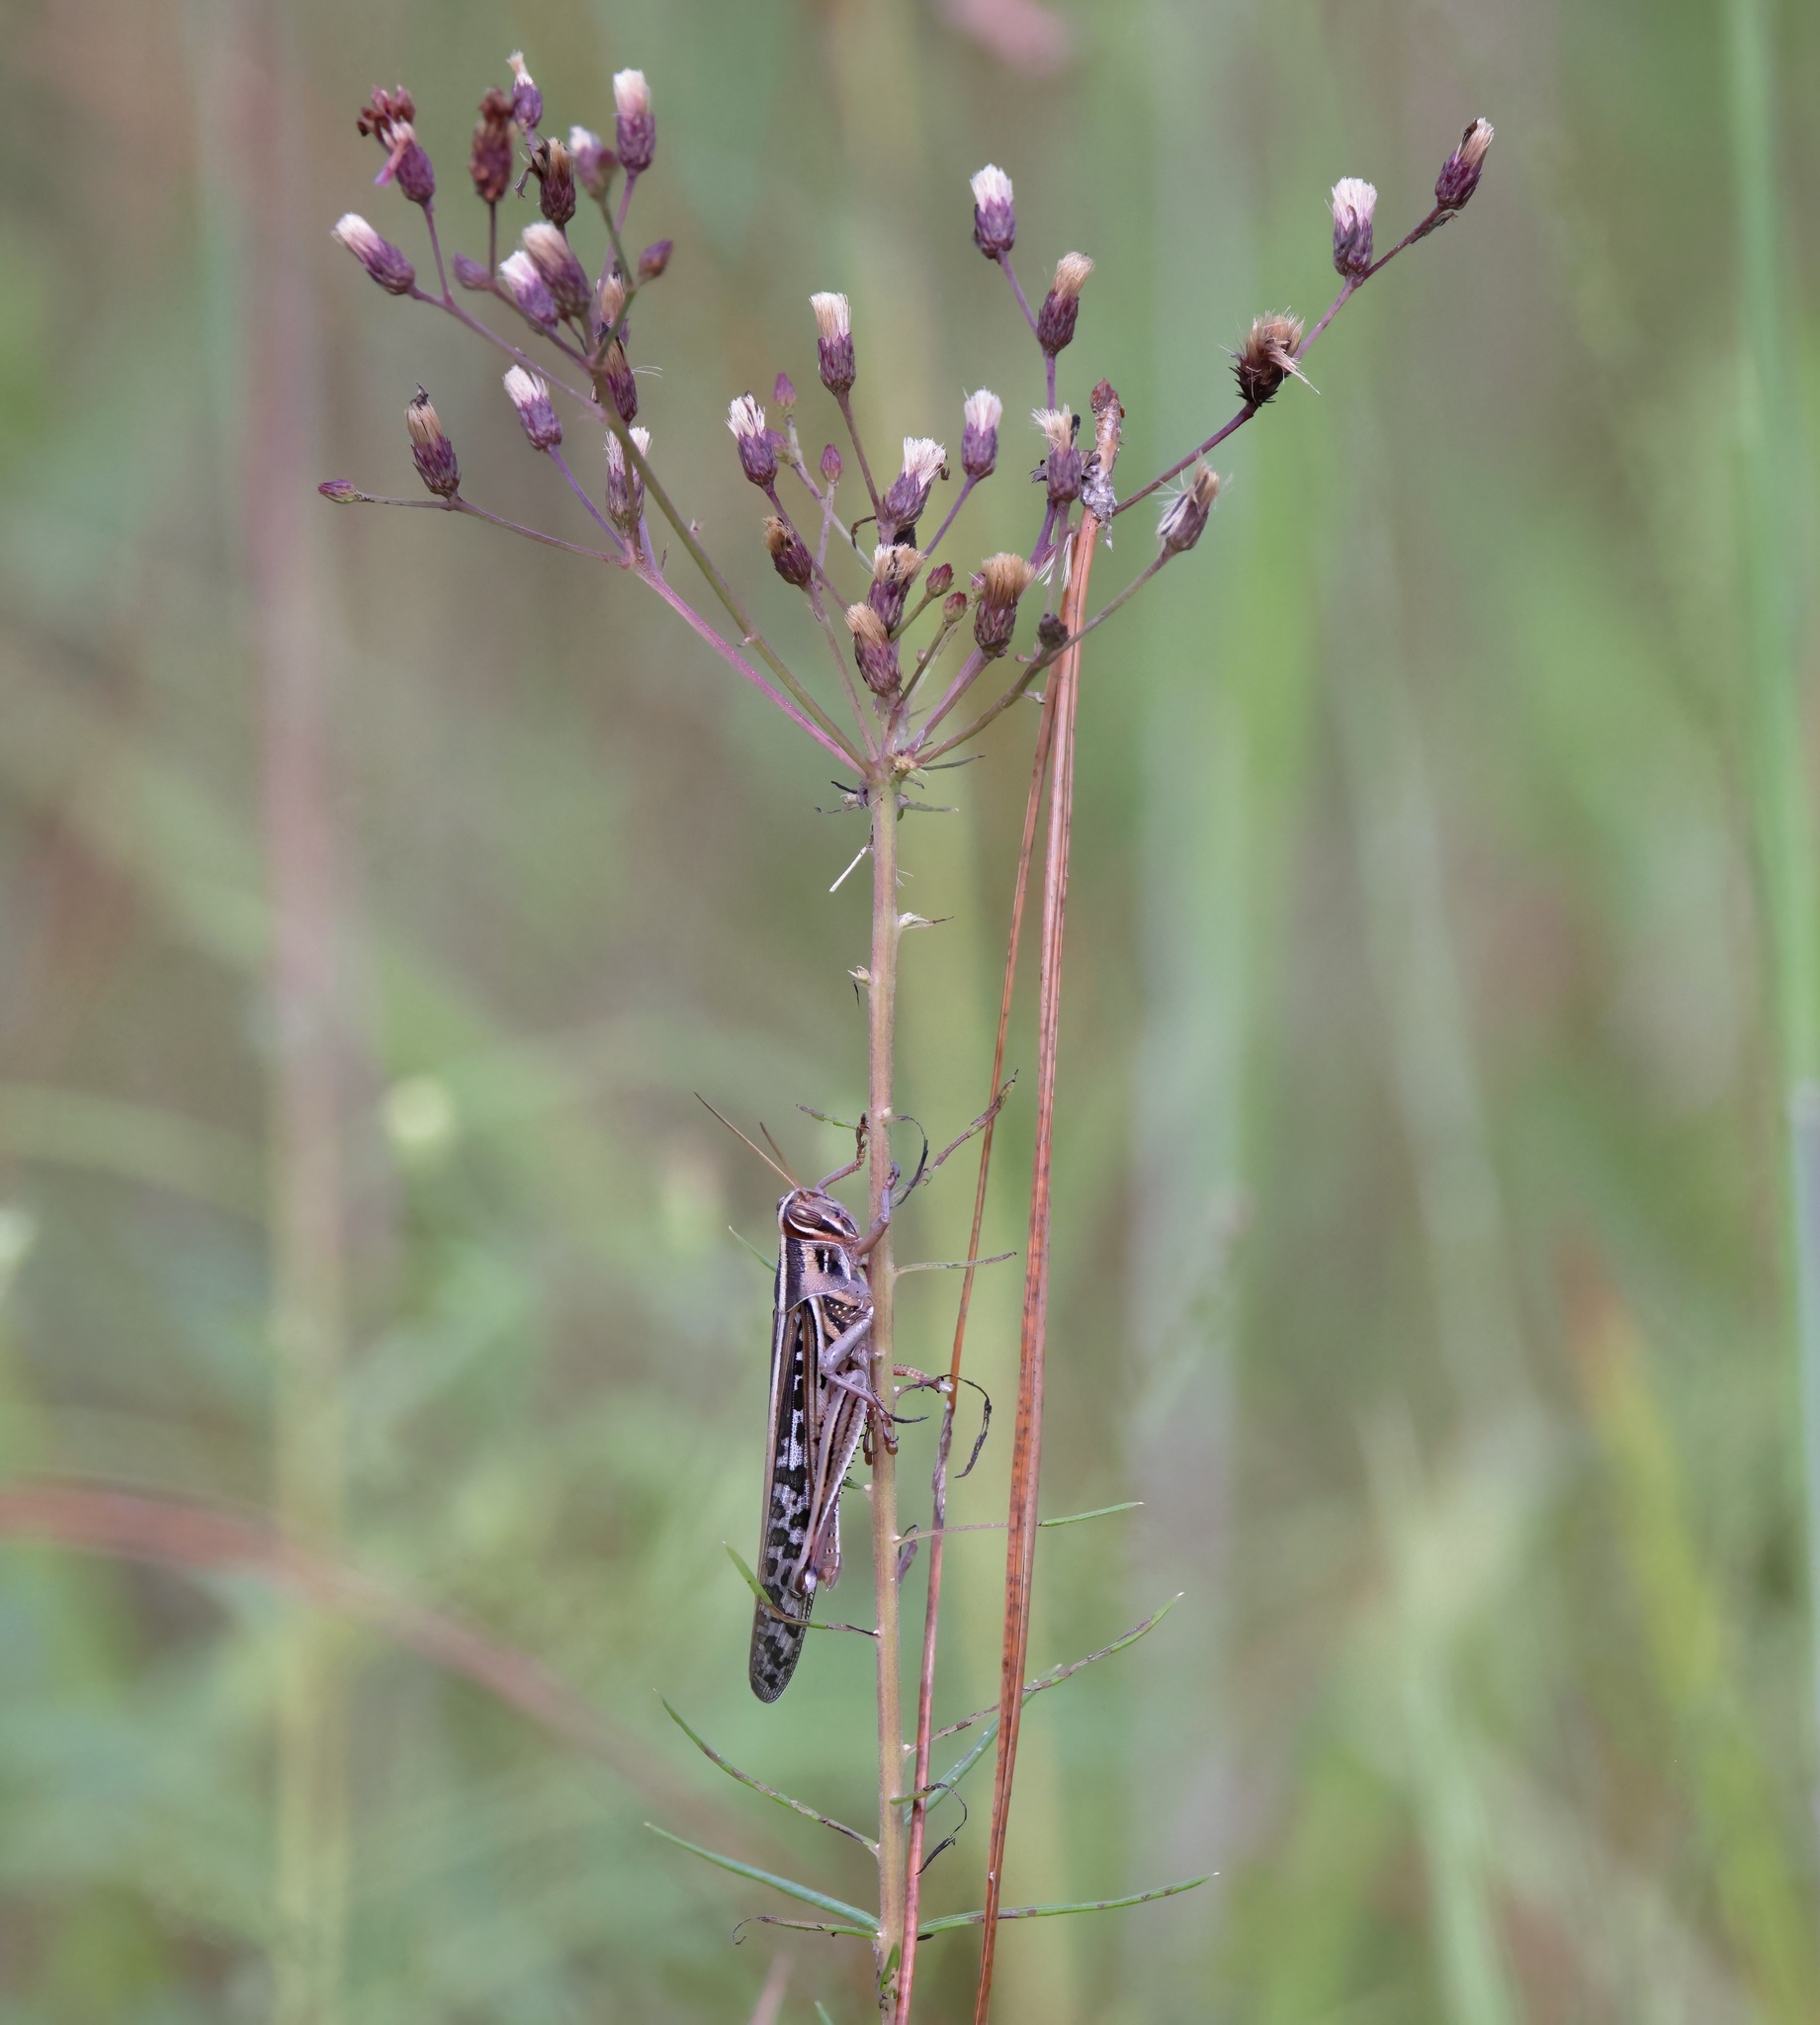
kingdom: Animalia
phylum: Arthropoda
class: Insecta
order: Orthoptera
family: Acrididae
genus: Schistocerca
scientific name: Schistocerca americana
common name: American bird locust
